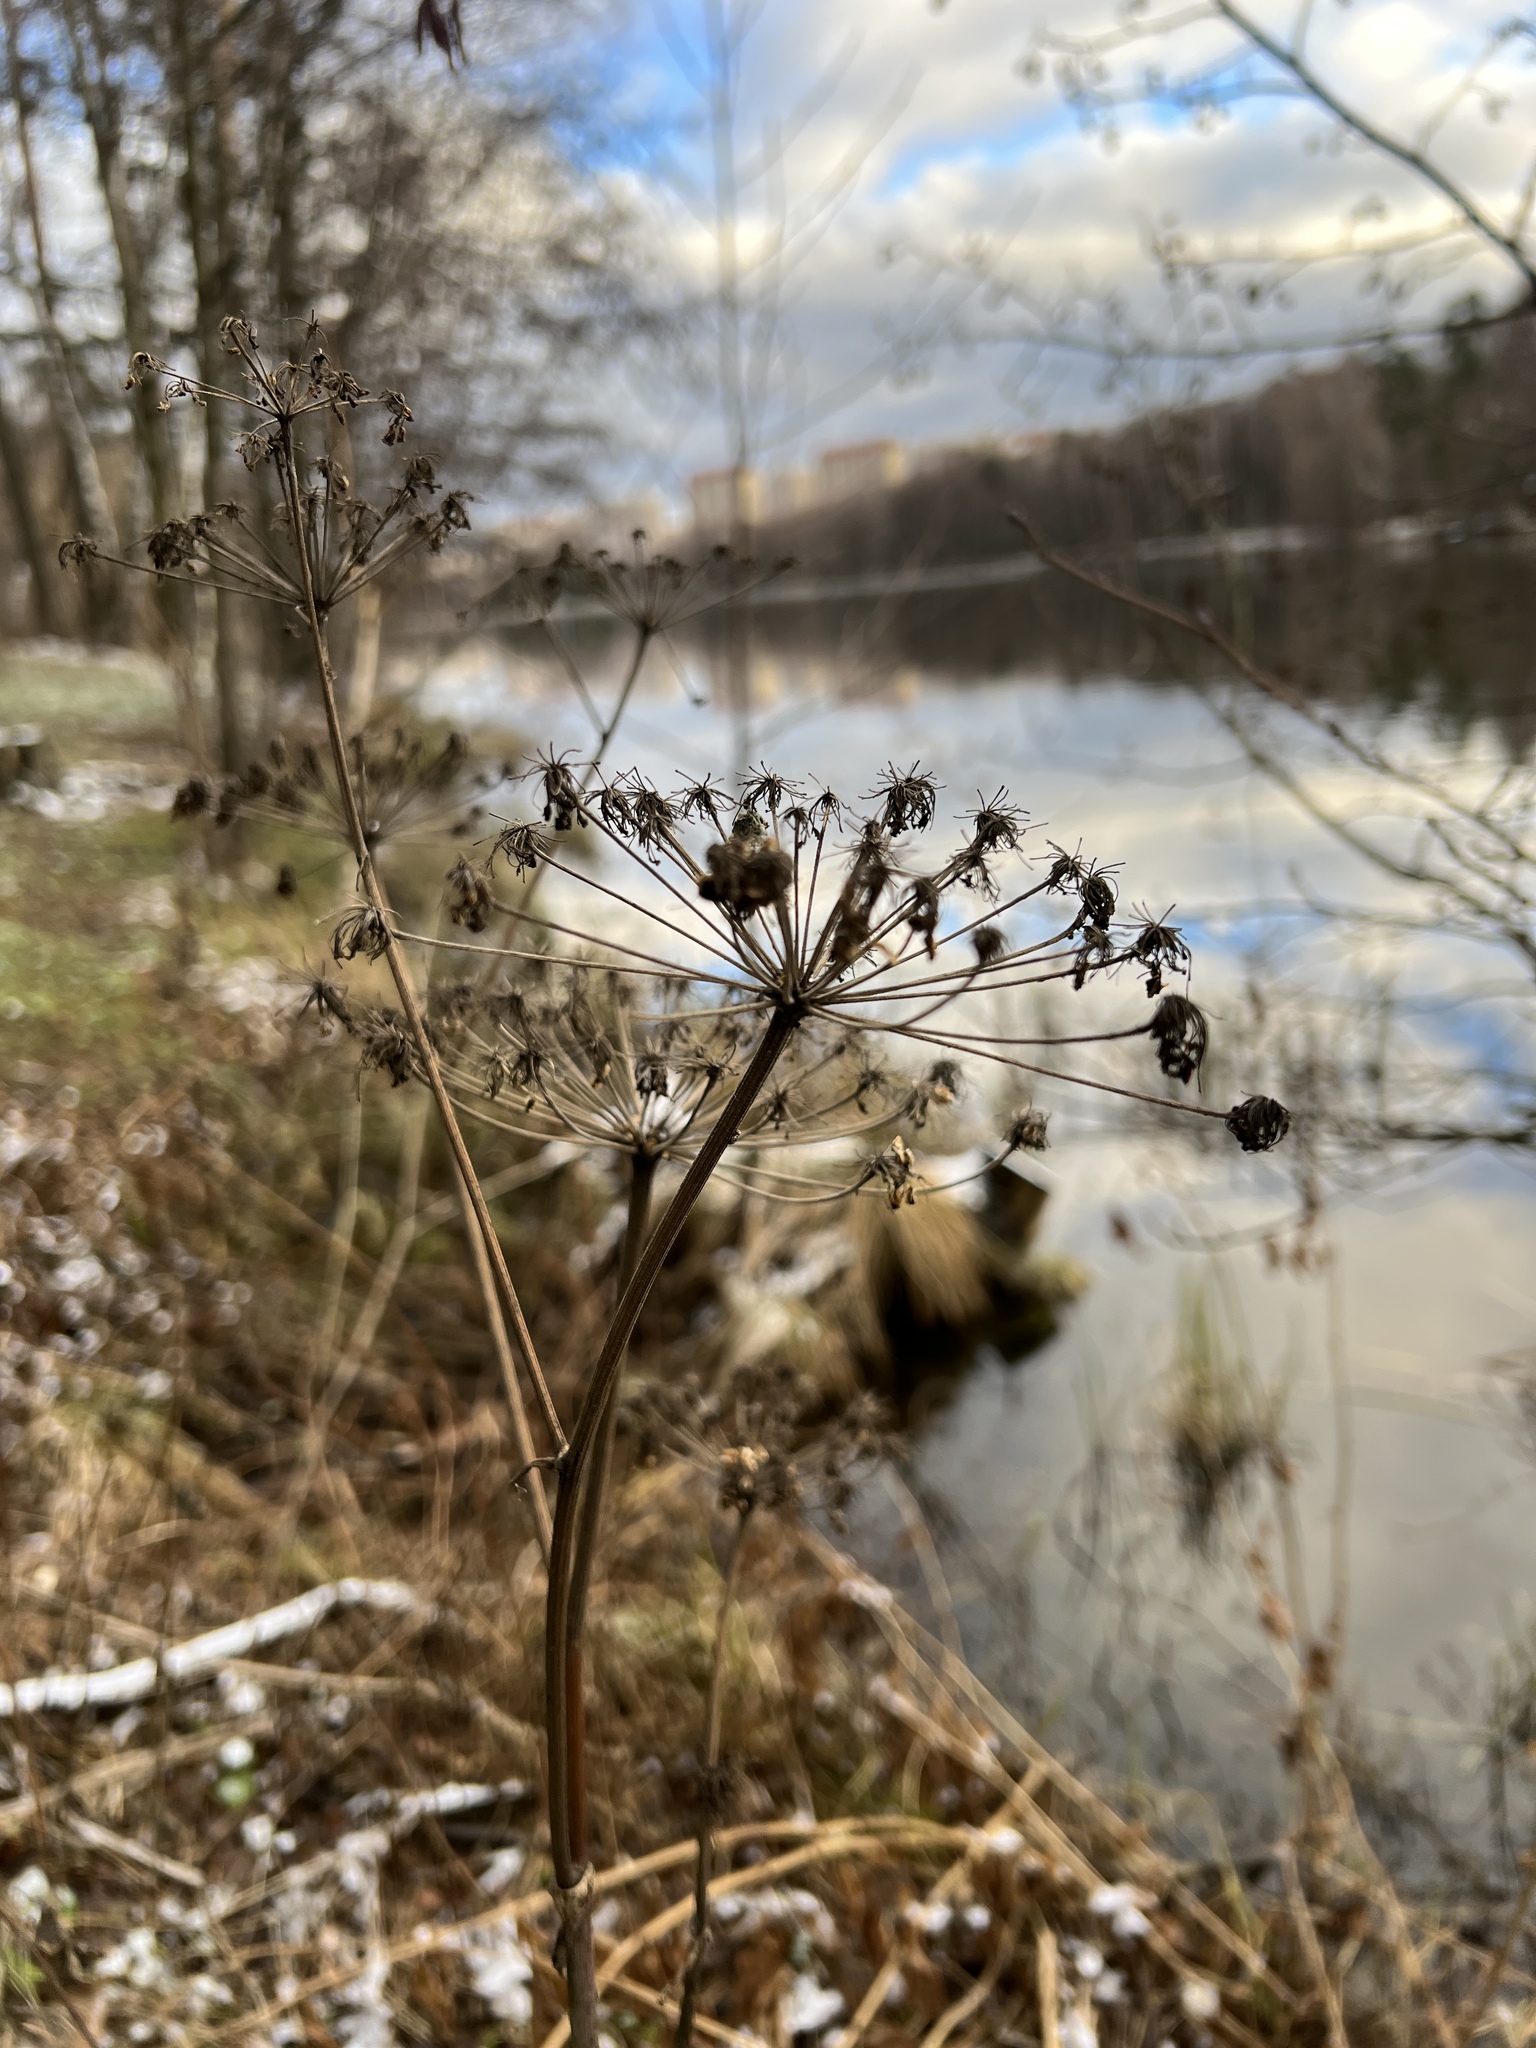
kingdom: Plantae
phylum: Tracheophyta
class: Magnoliopsida
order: Apiales
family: Apiaceae
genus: Angelica
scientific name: Angelica sylvestris
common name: Wild angelica
